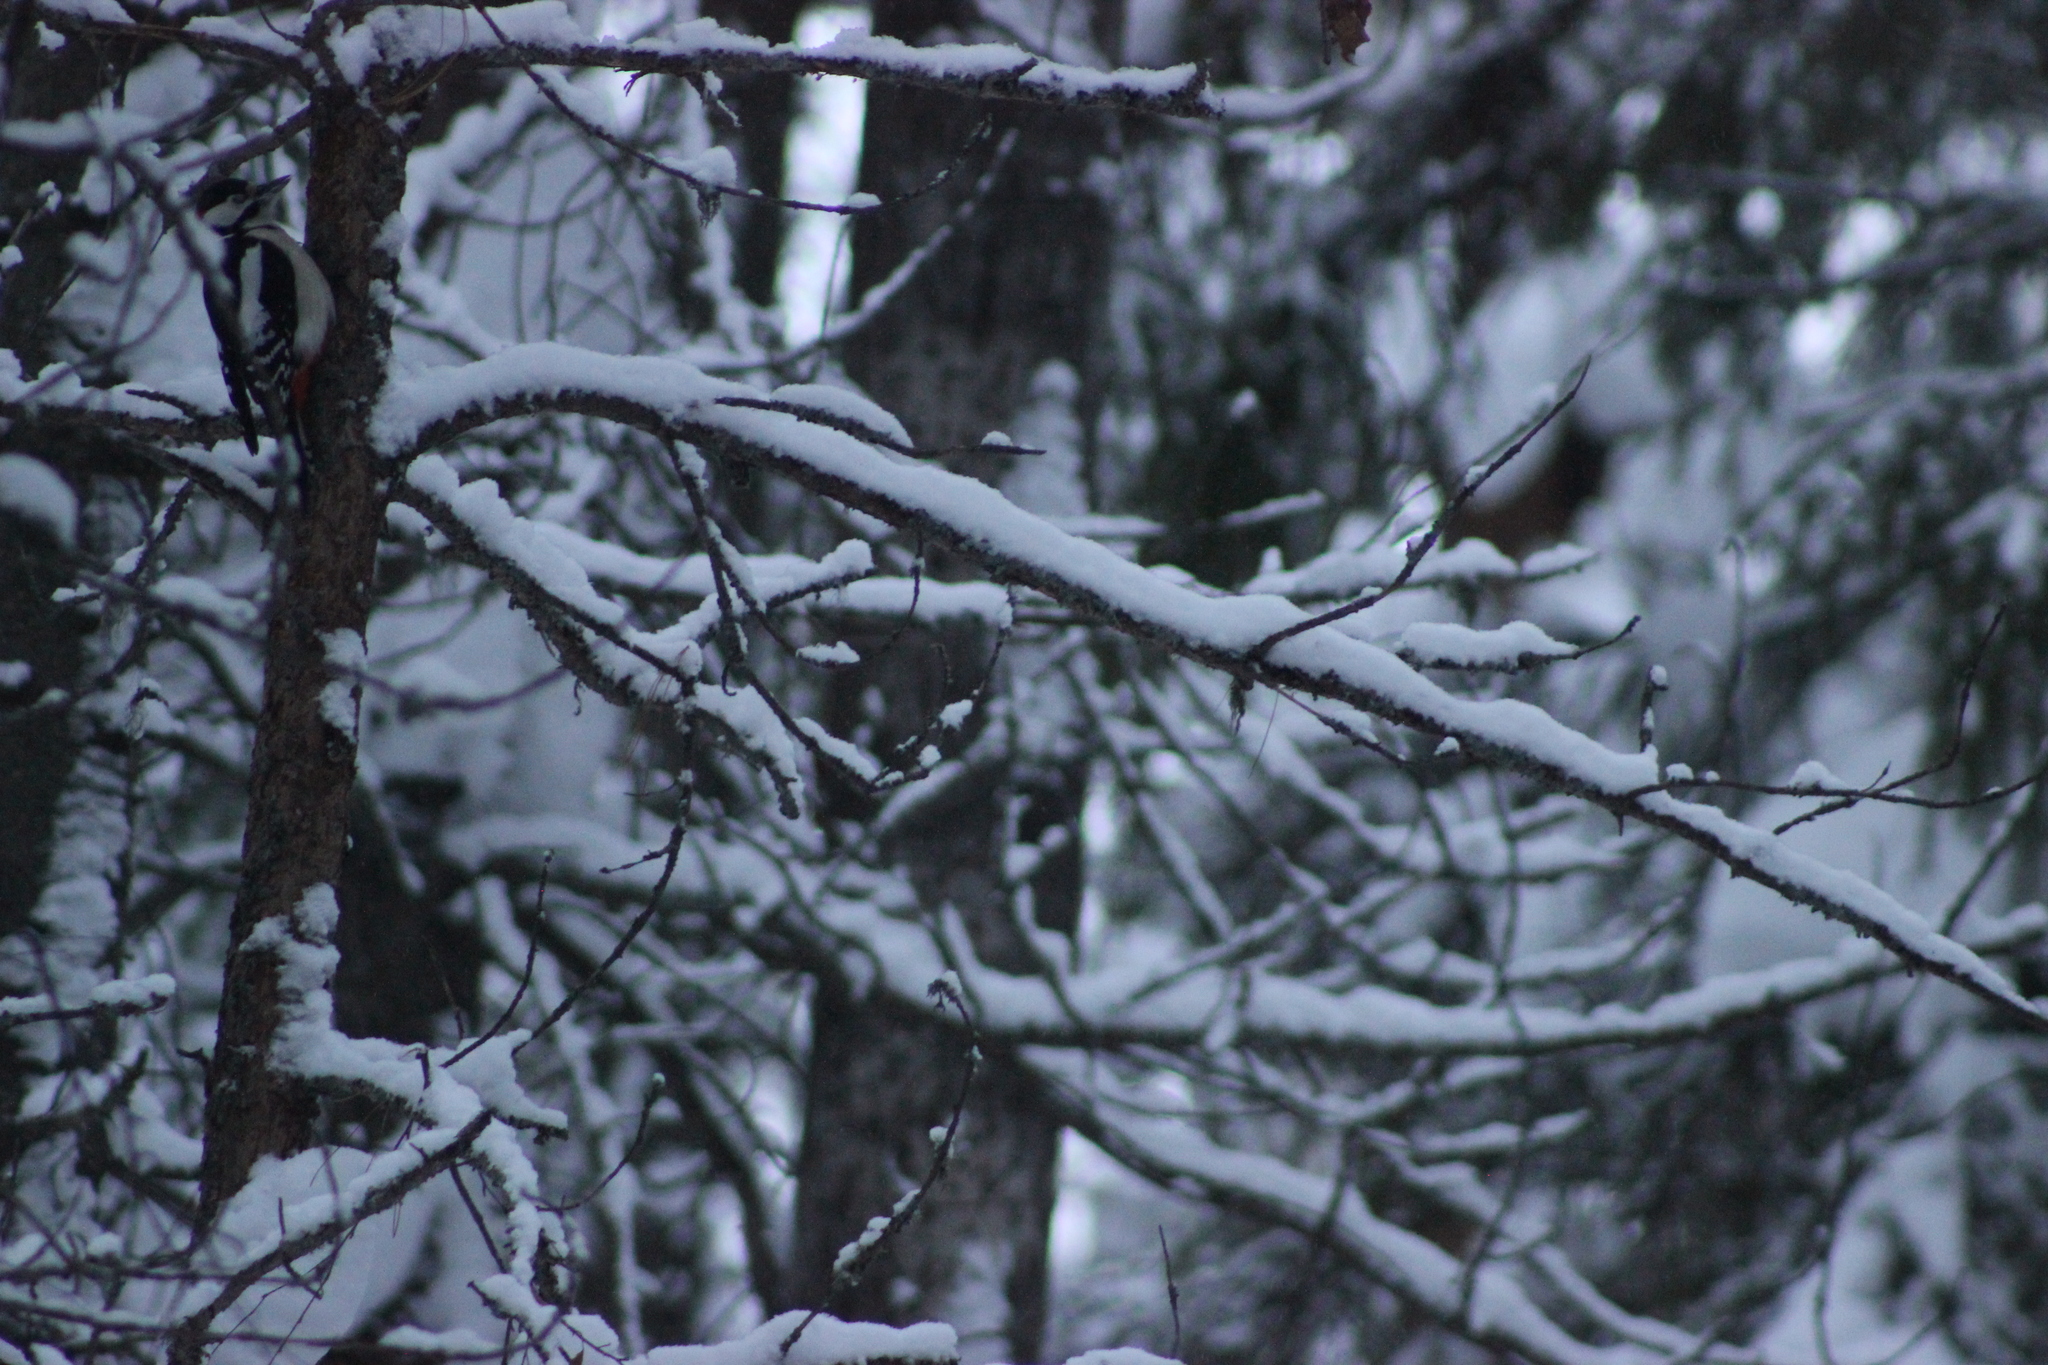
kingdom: Animalia
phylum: Chordata
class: Aves
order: Piciformes
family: Picidae
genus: Dendrocopos
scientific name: Dendrocopos major
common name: Great spotted woodpecker
